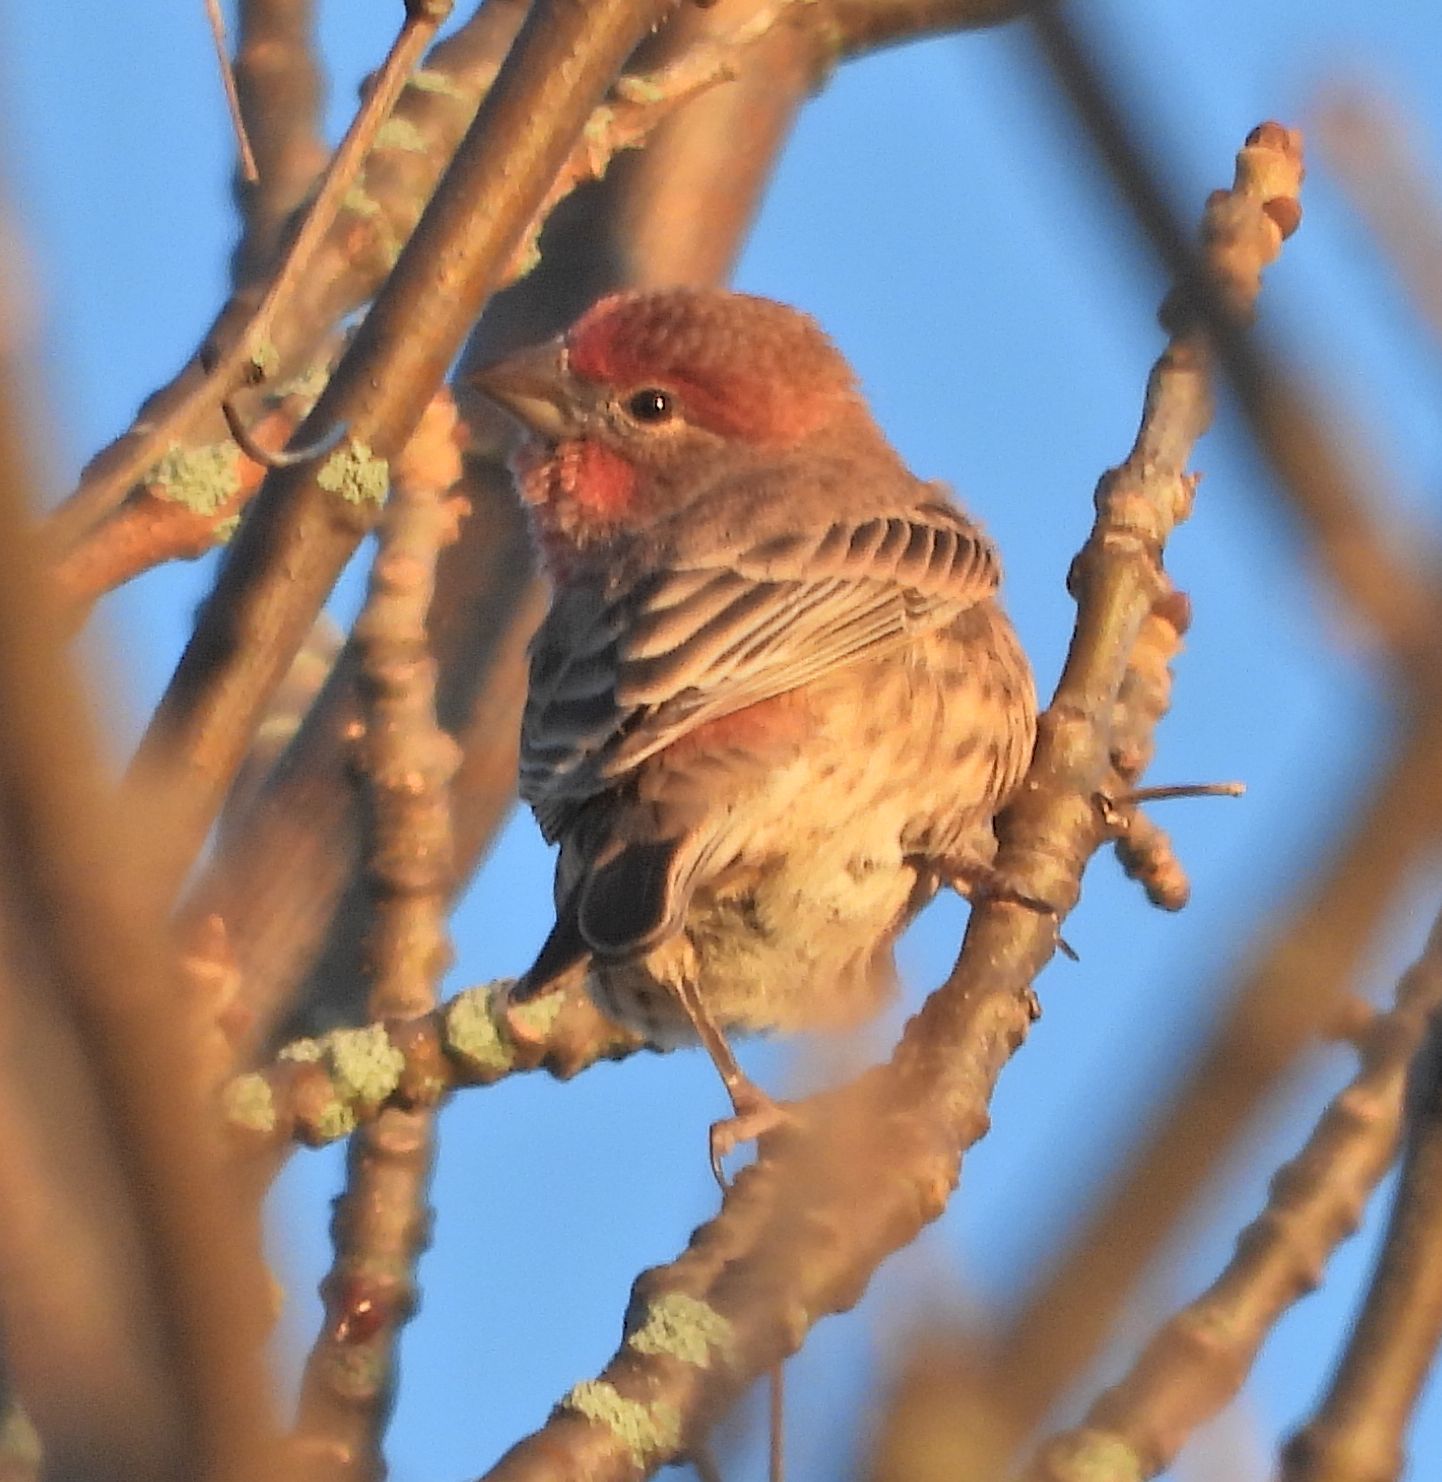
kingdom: Animalia
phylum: Chordata
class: Aves
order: Passeriformes
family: Fringillidae
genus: Haemorhous
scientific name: Haemorhous mexicanus
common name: House finch
